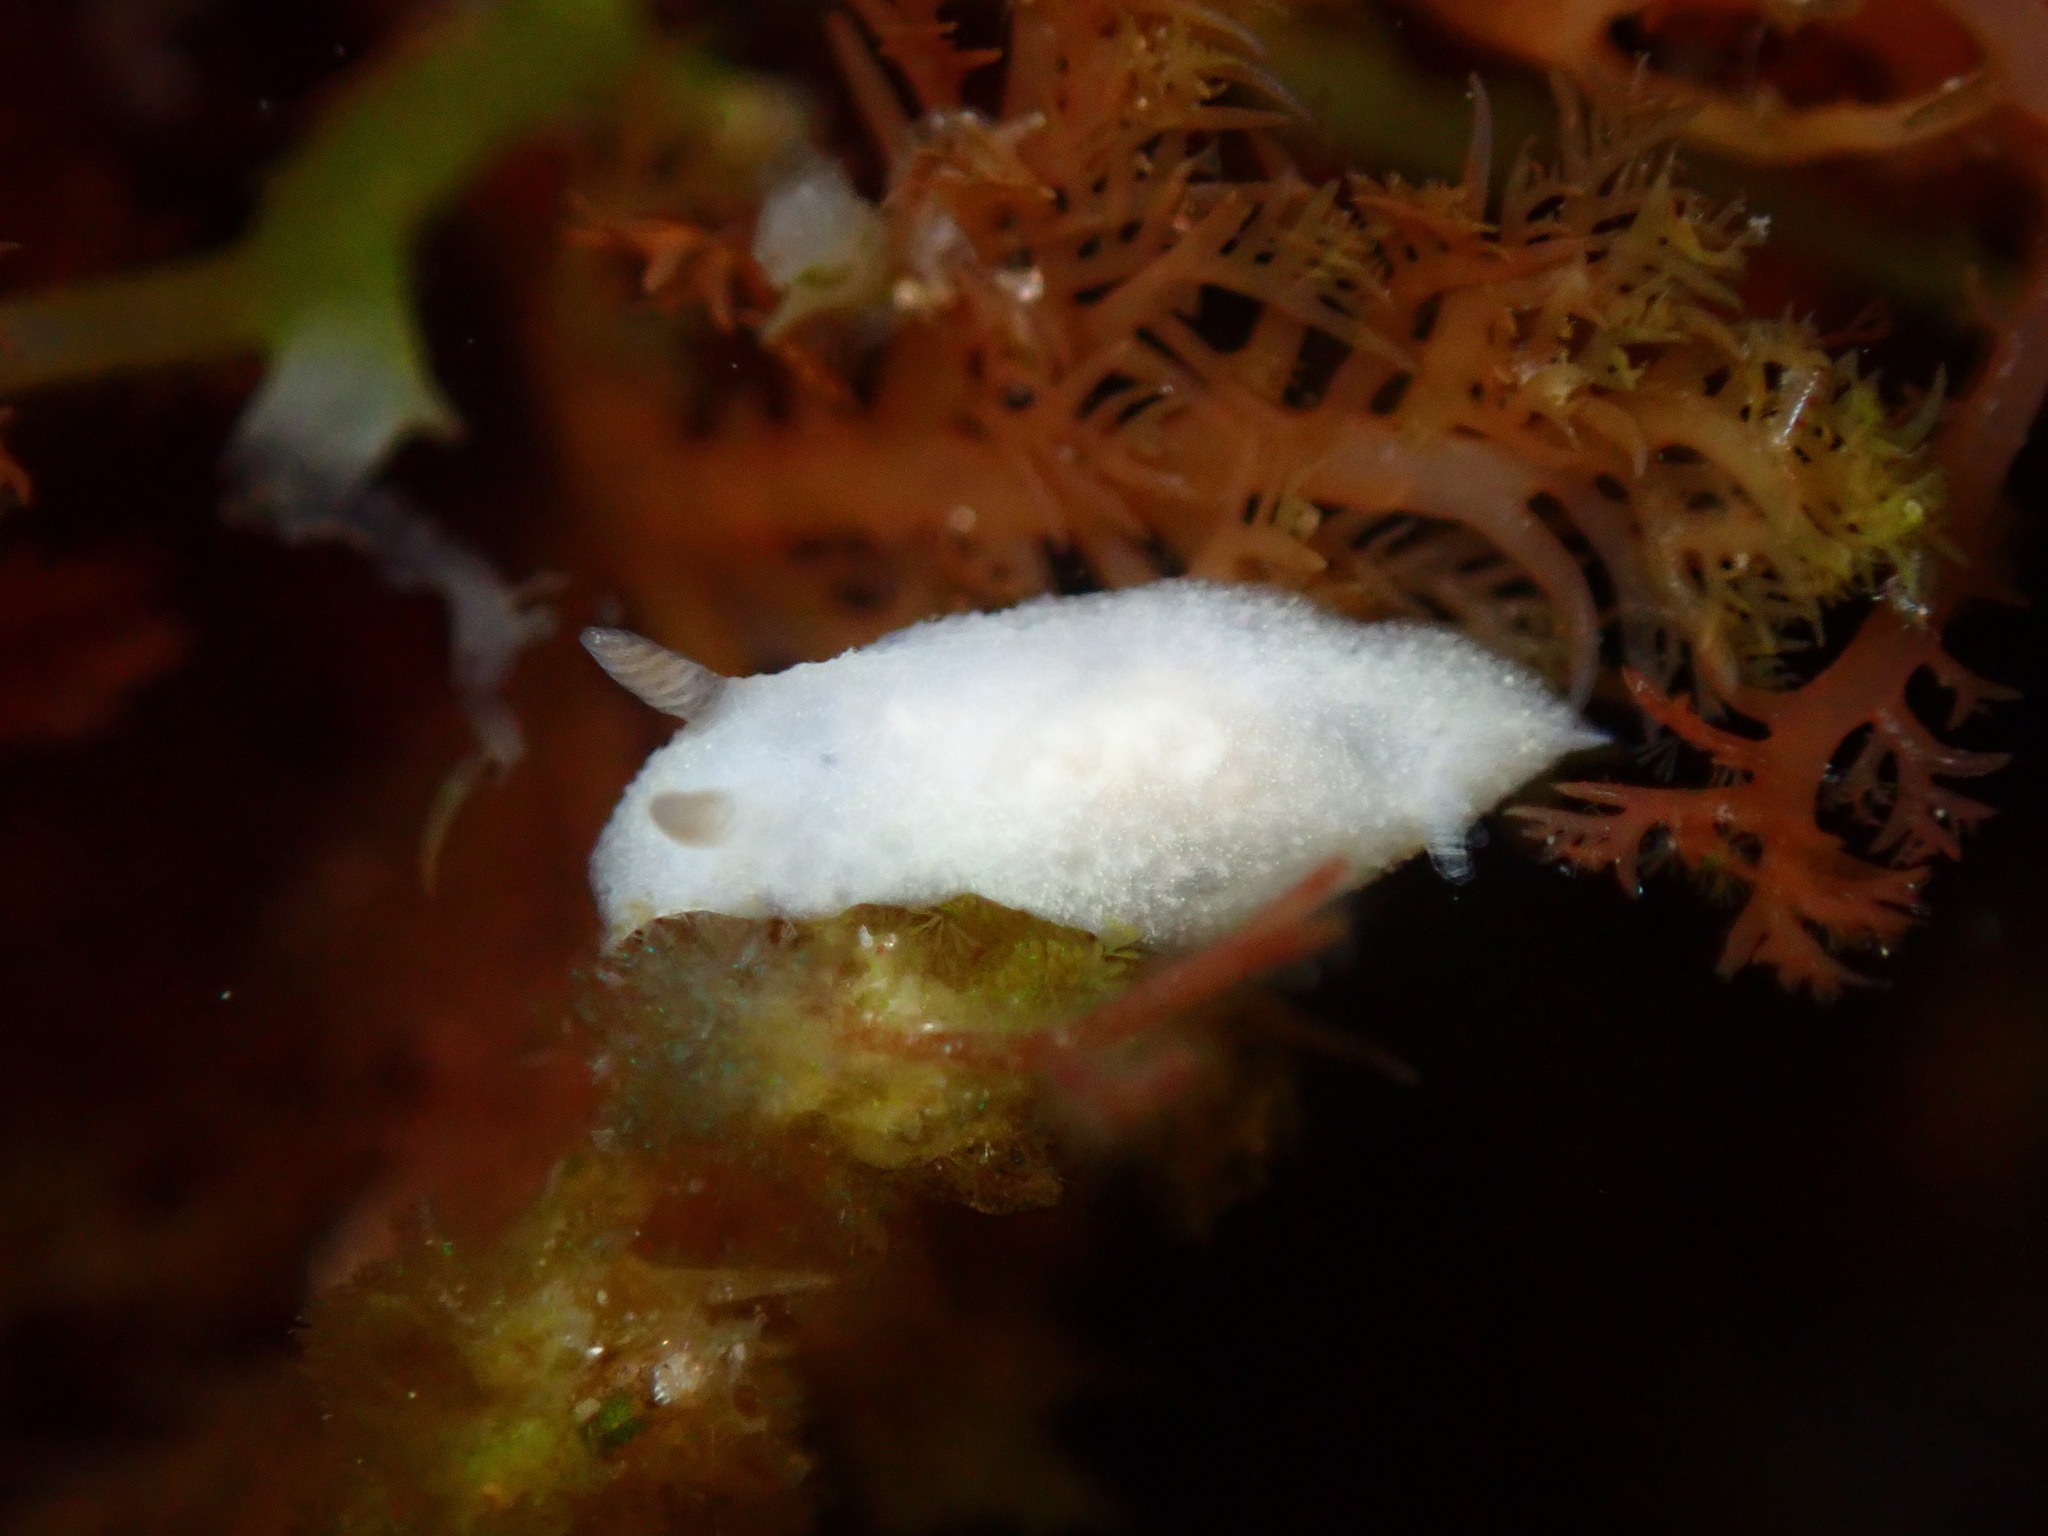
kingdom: Animalia
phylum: Mollusca
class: Gastropoda
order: Nudibranchia
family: Dendrodorididae
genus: Doriopsilla
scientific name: Doriopsilla rowena
